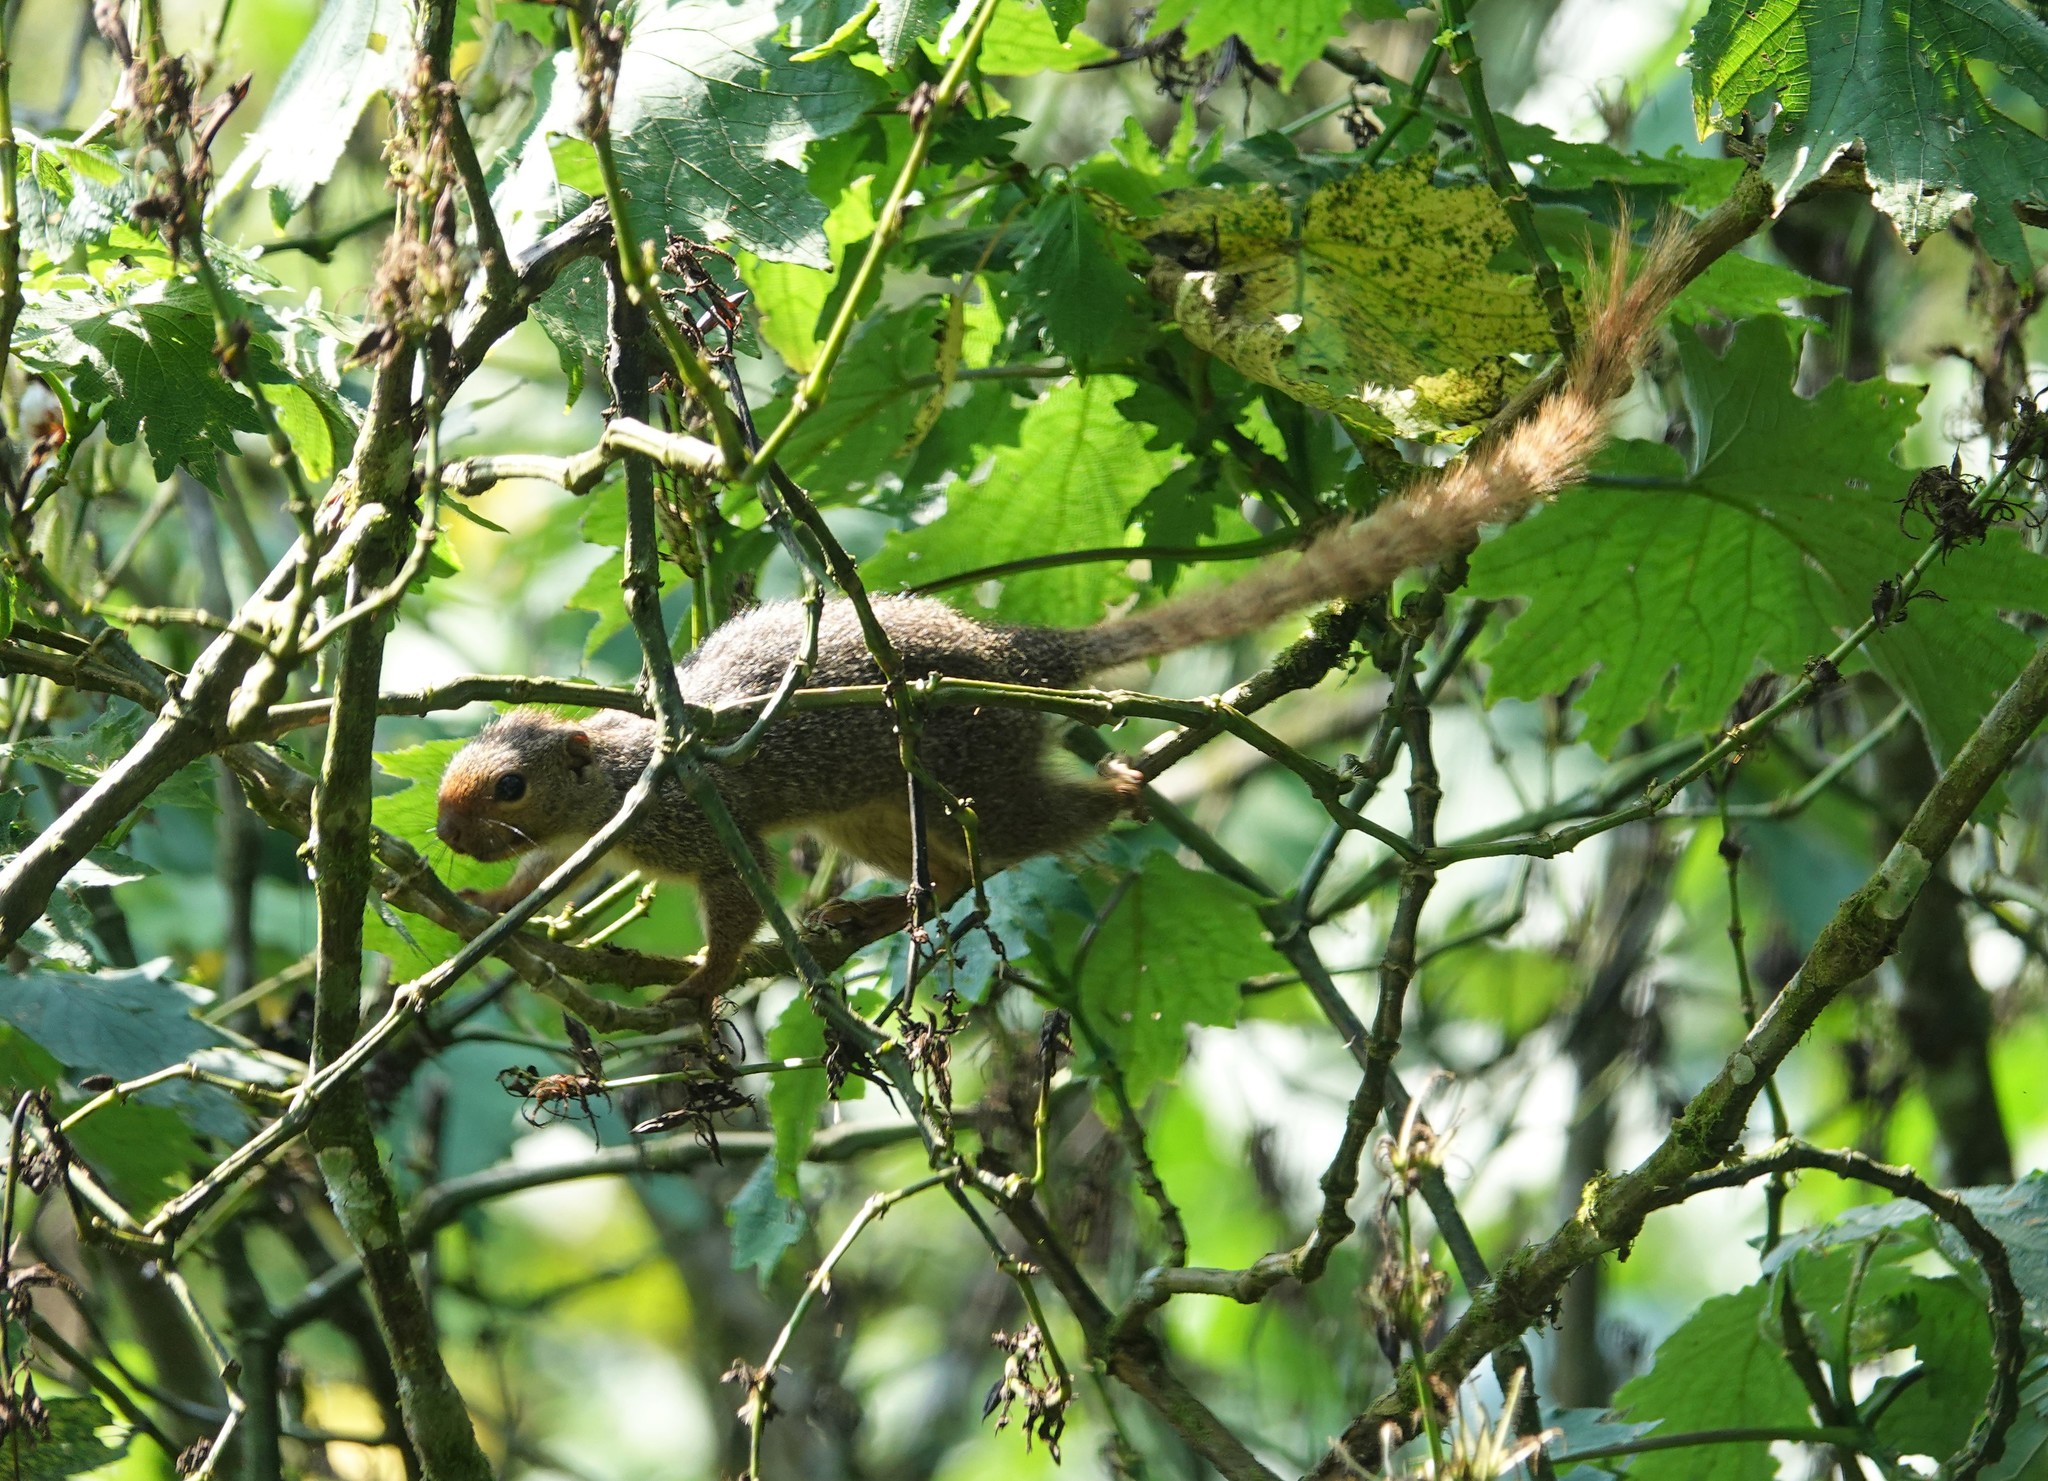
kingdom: Animalia
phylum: Chordata
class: Mammalia
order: Rodentia
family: Sciuridae
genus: Heliosciurus
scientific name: Heliosciurus ruwenzorii
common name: Ruwenzori sun squirrel
